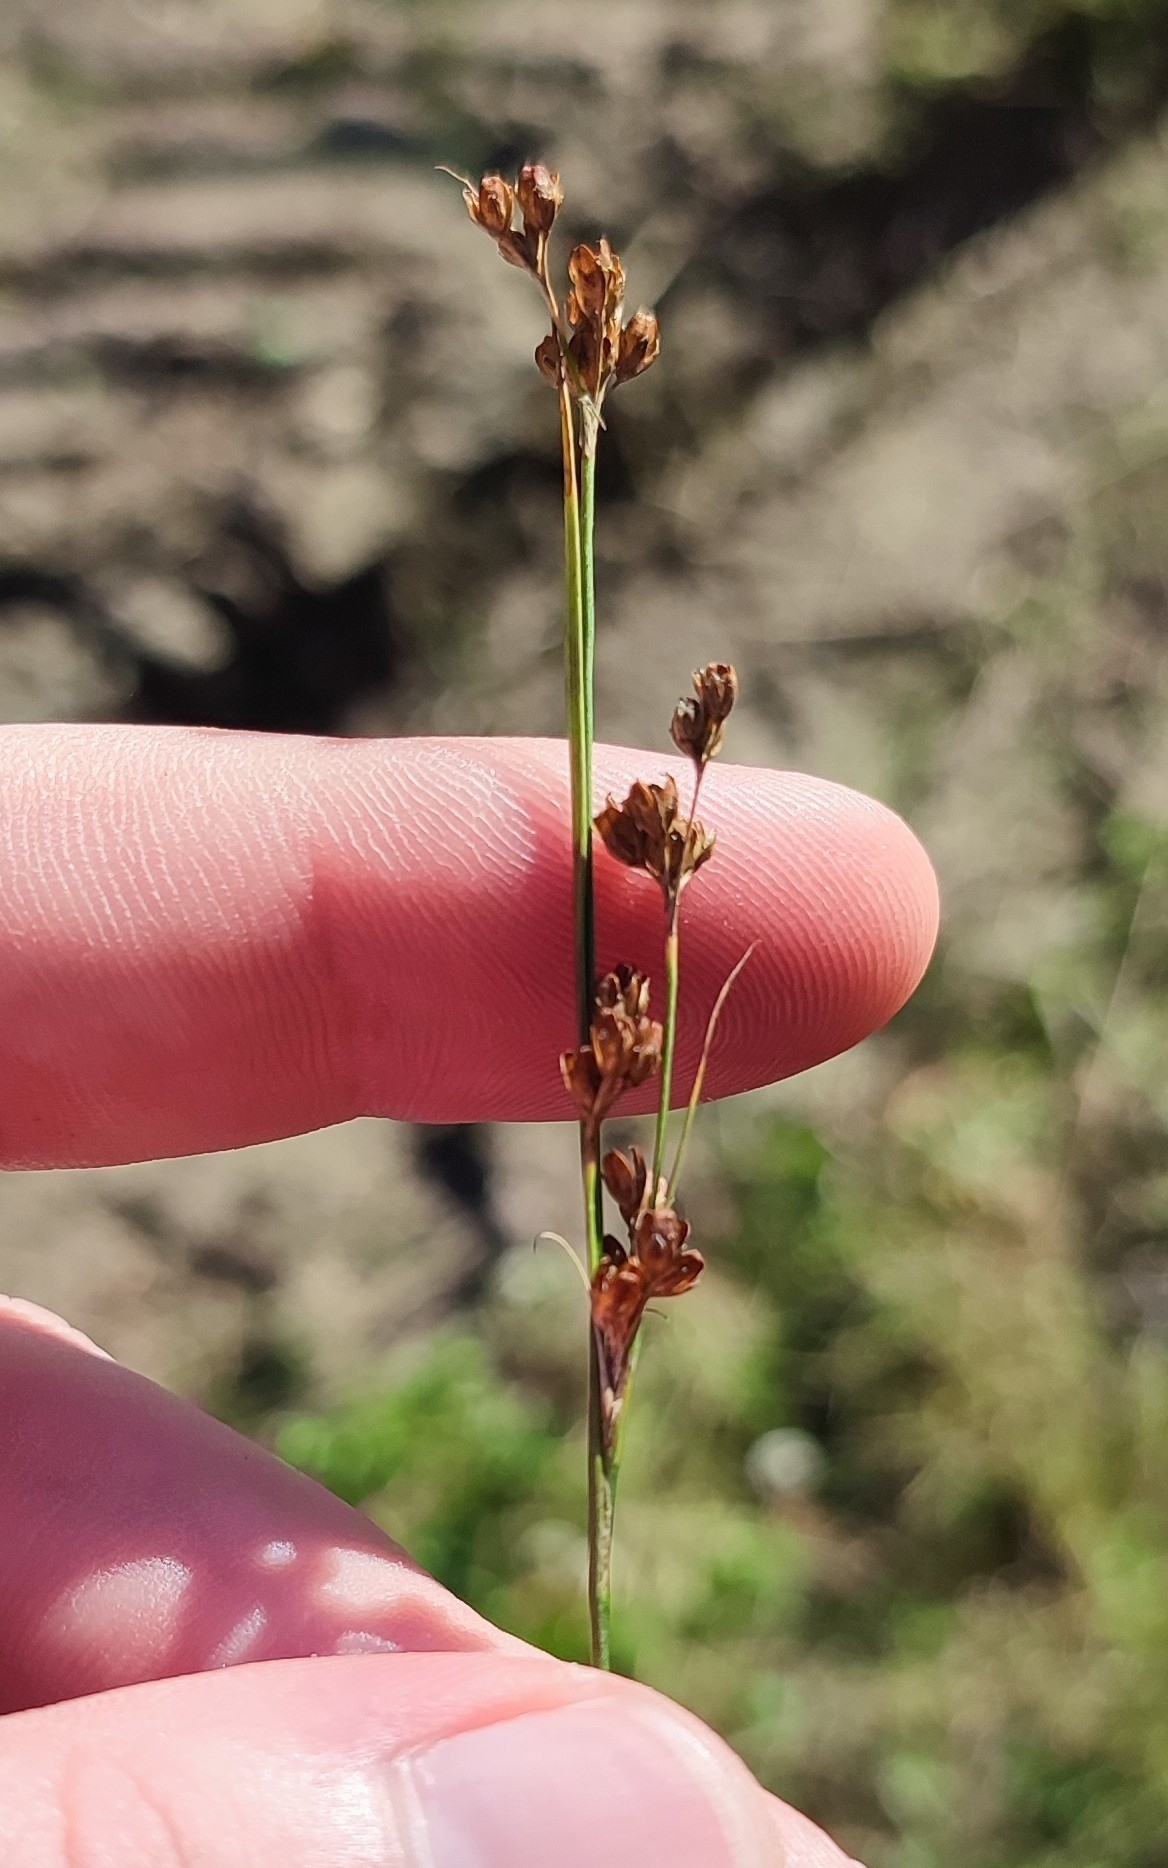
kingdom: Plantae
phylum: Tracheophyta
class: Liliopsida
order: Poales
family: Juncaceae
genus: Juncus
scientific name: Juncus compressus
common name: Round-fruited rush
